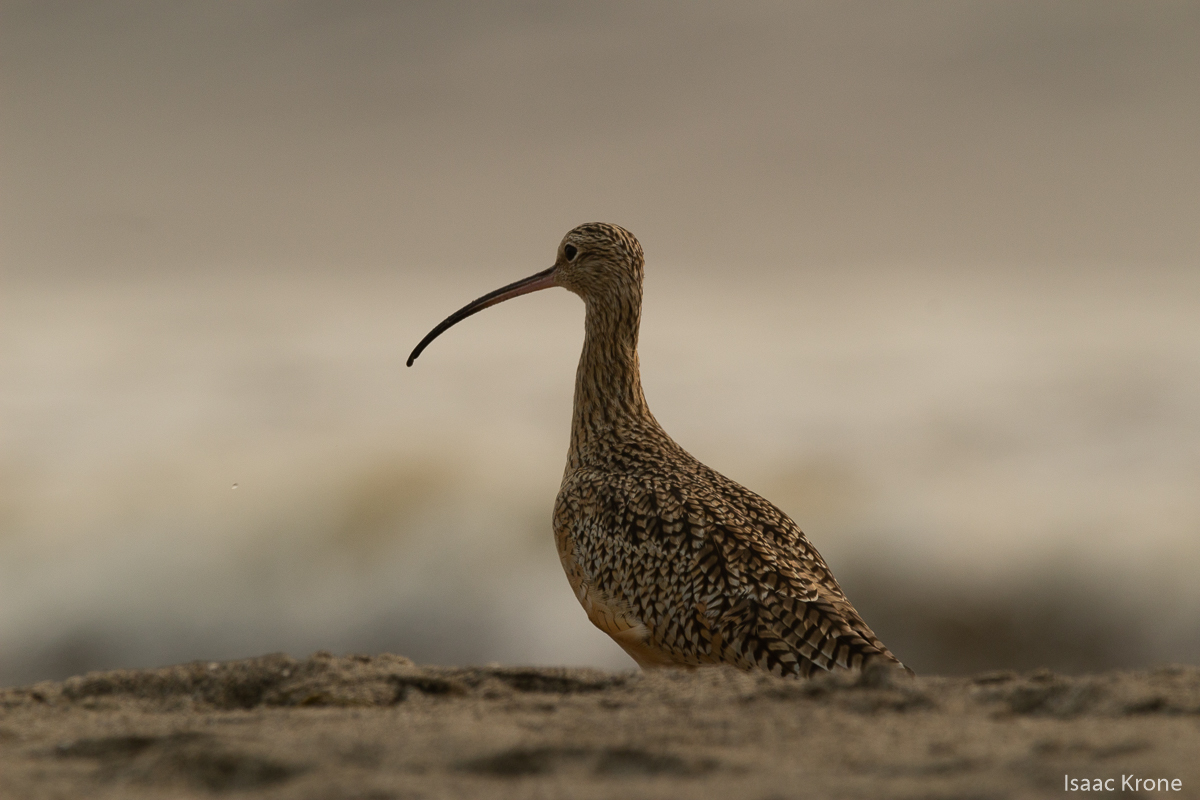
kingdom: Animalia
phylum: Chordata
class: Aves
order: Charadriiformes
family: Scolopacidae
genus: Numenius
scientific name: Numenius americanus
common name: Long-billed curlew
